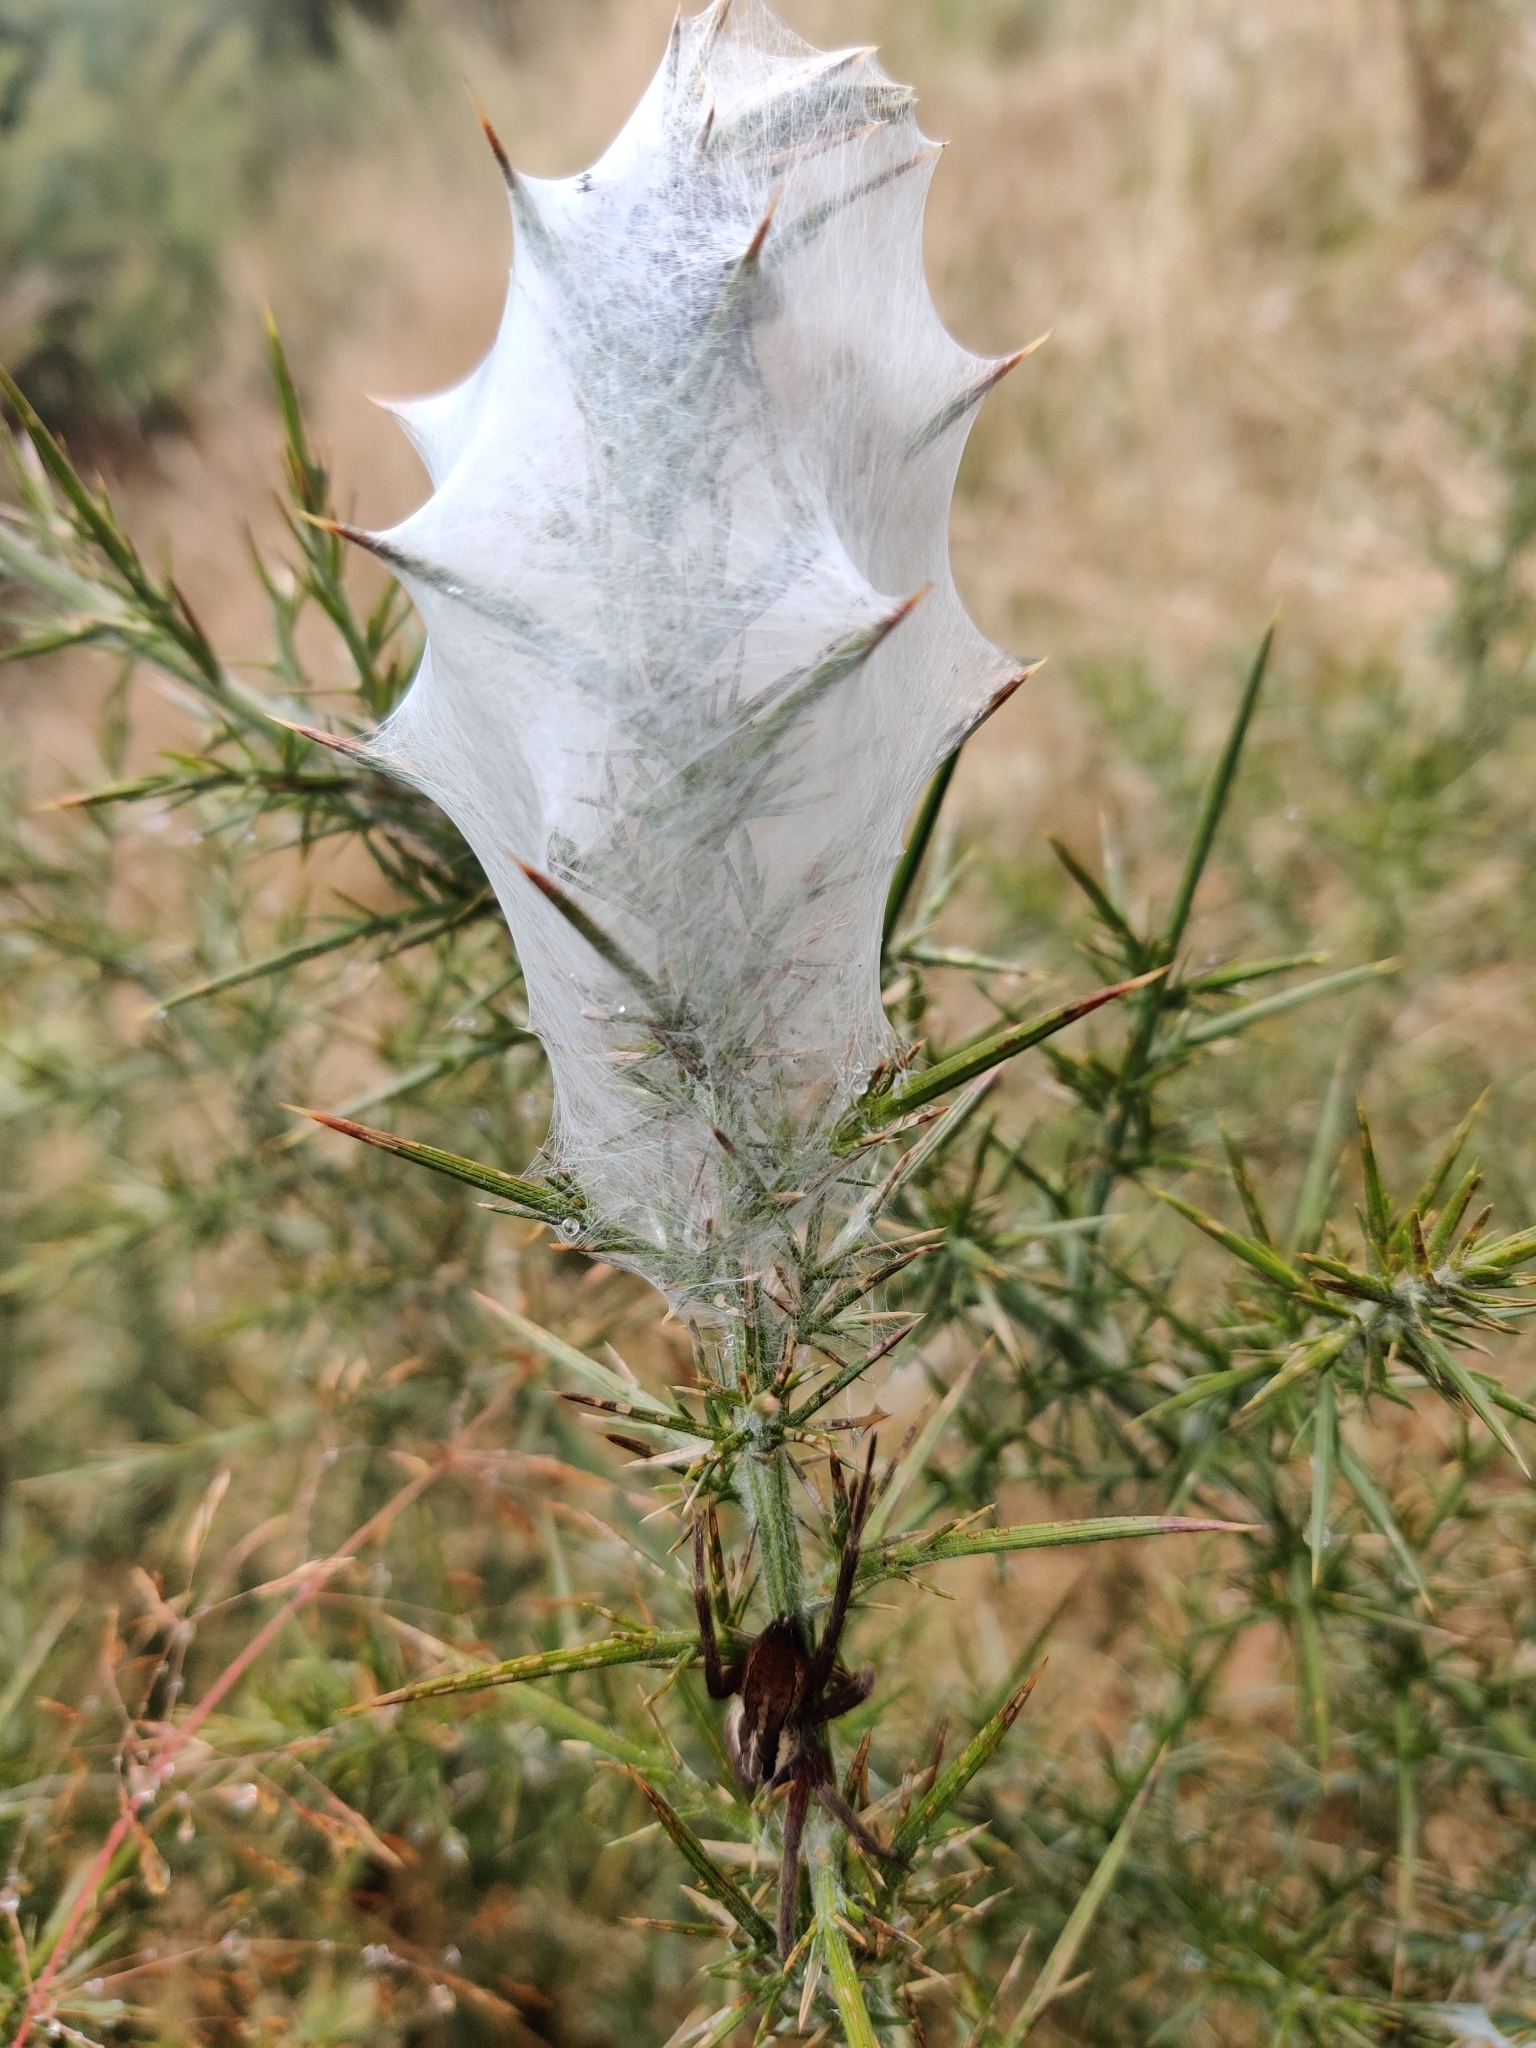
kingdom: Animalia
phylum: Arthropoda
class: Arachnida
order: Araneae
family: Pisauridae
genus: Dolomedes
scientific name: Dolomedes minor
